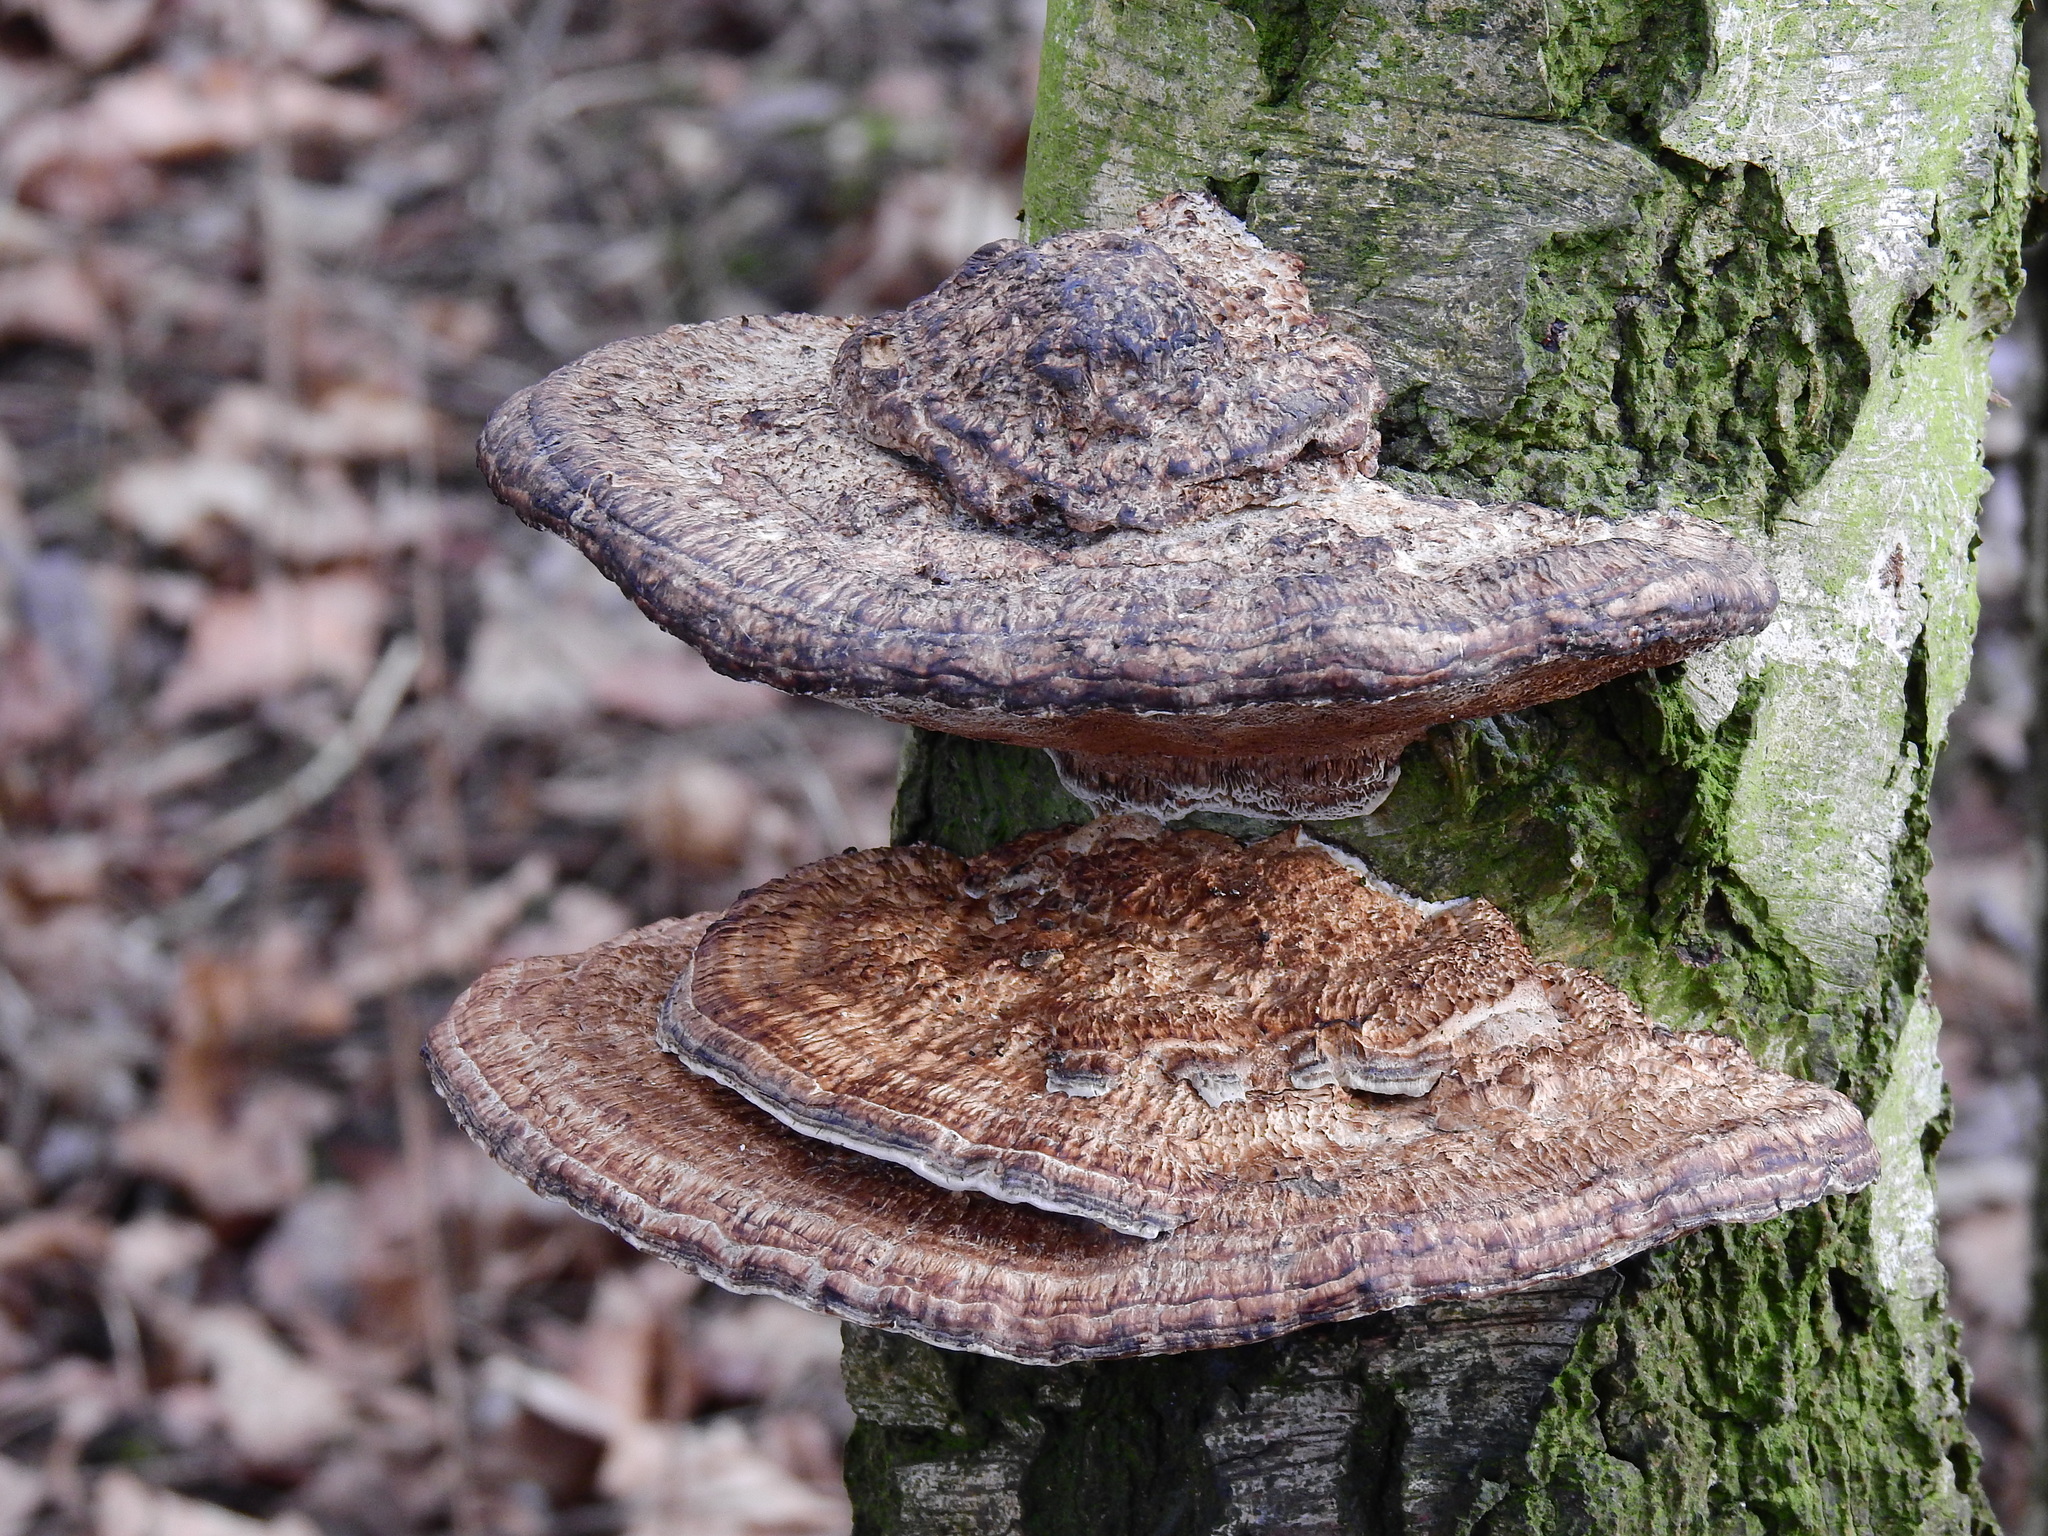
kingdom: Fungi
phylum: Basidiomycota
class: Agaricomycetes
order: Polyporales
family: Polyporaceae
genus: Daedaleopsis
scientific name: Daedaleopsis confragosa
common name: Blushing bracket
